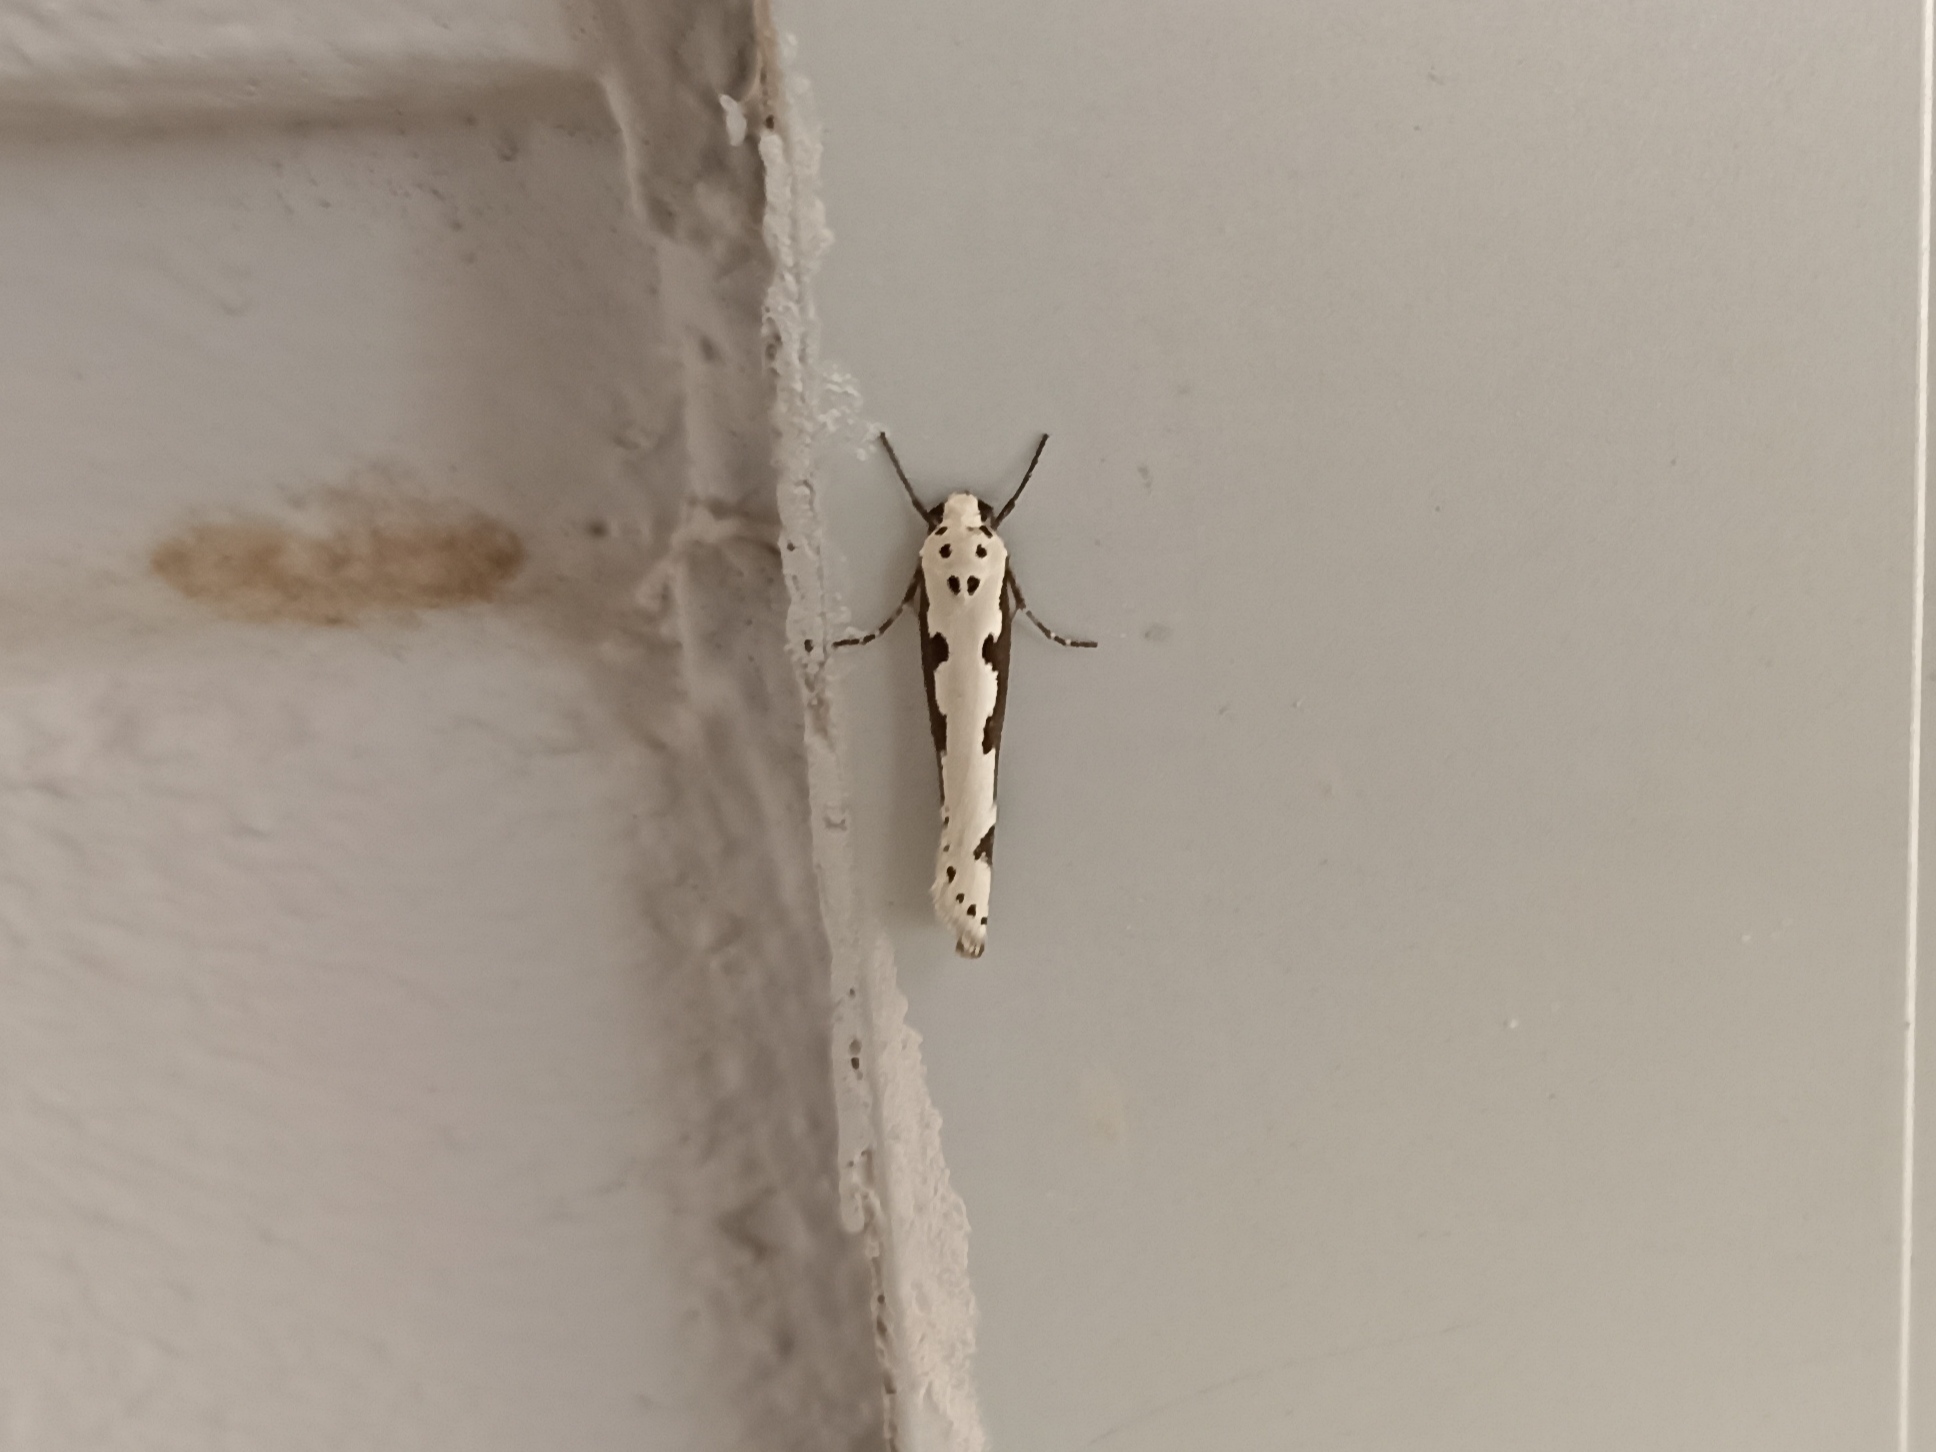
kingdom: Animalia
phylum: Arthropoda
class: Insecta
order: Lepidoptera
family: Ethmiidae
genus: Ethmia
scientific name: Ethmia bipunctella
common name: Bordered ermel
